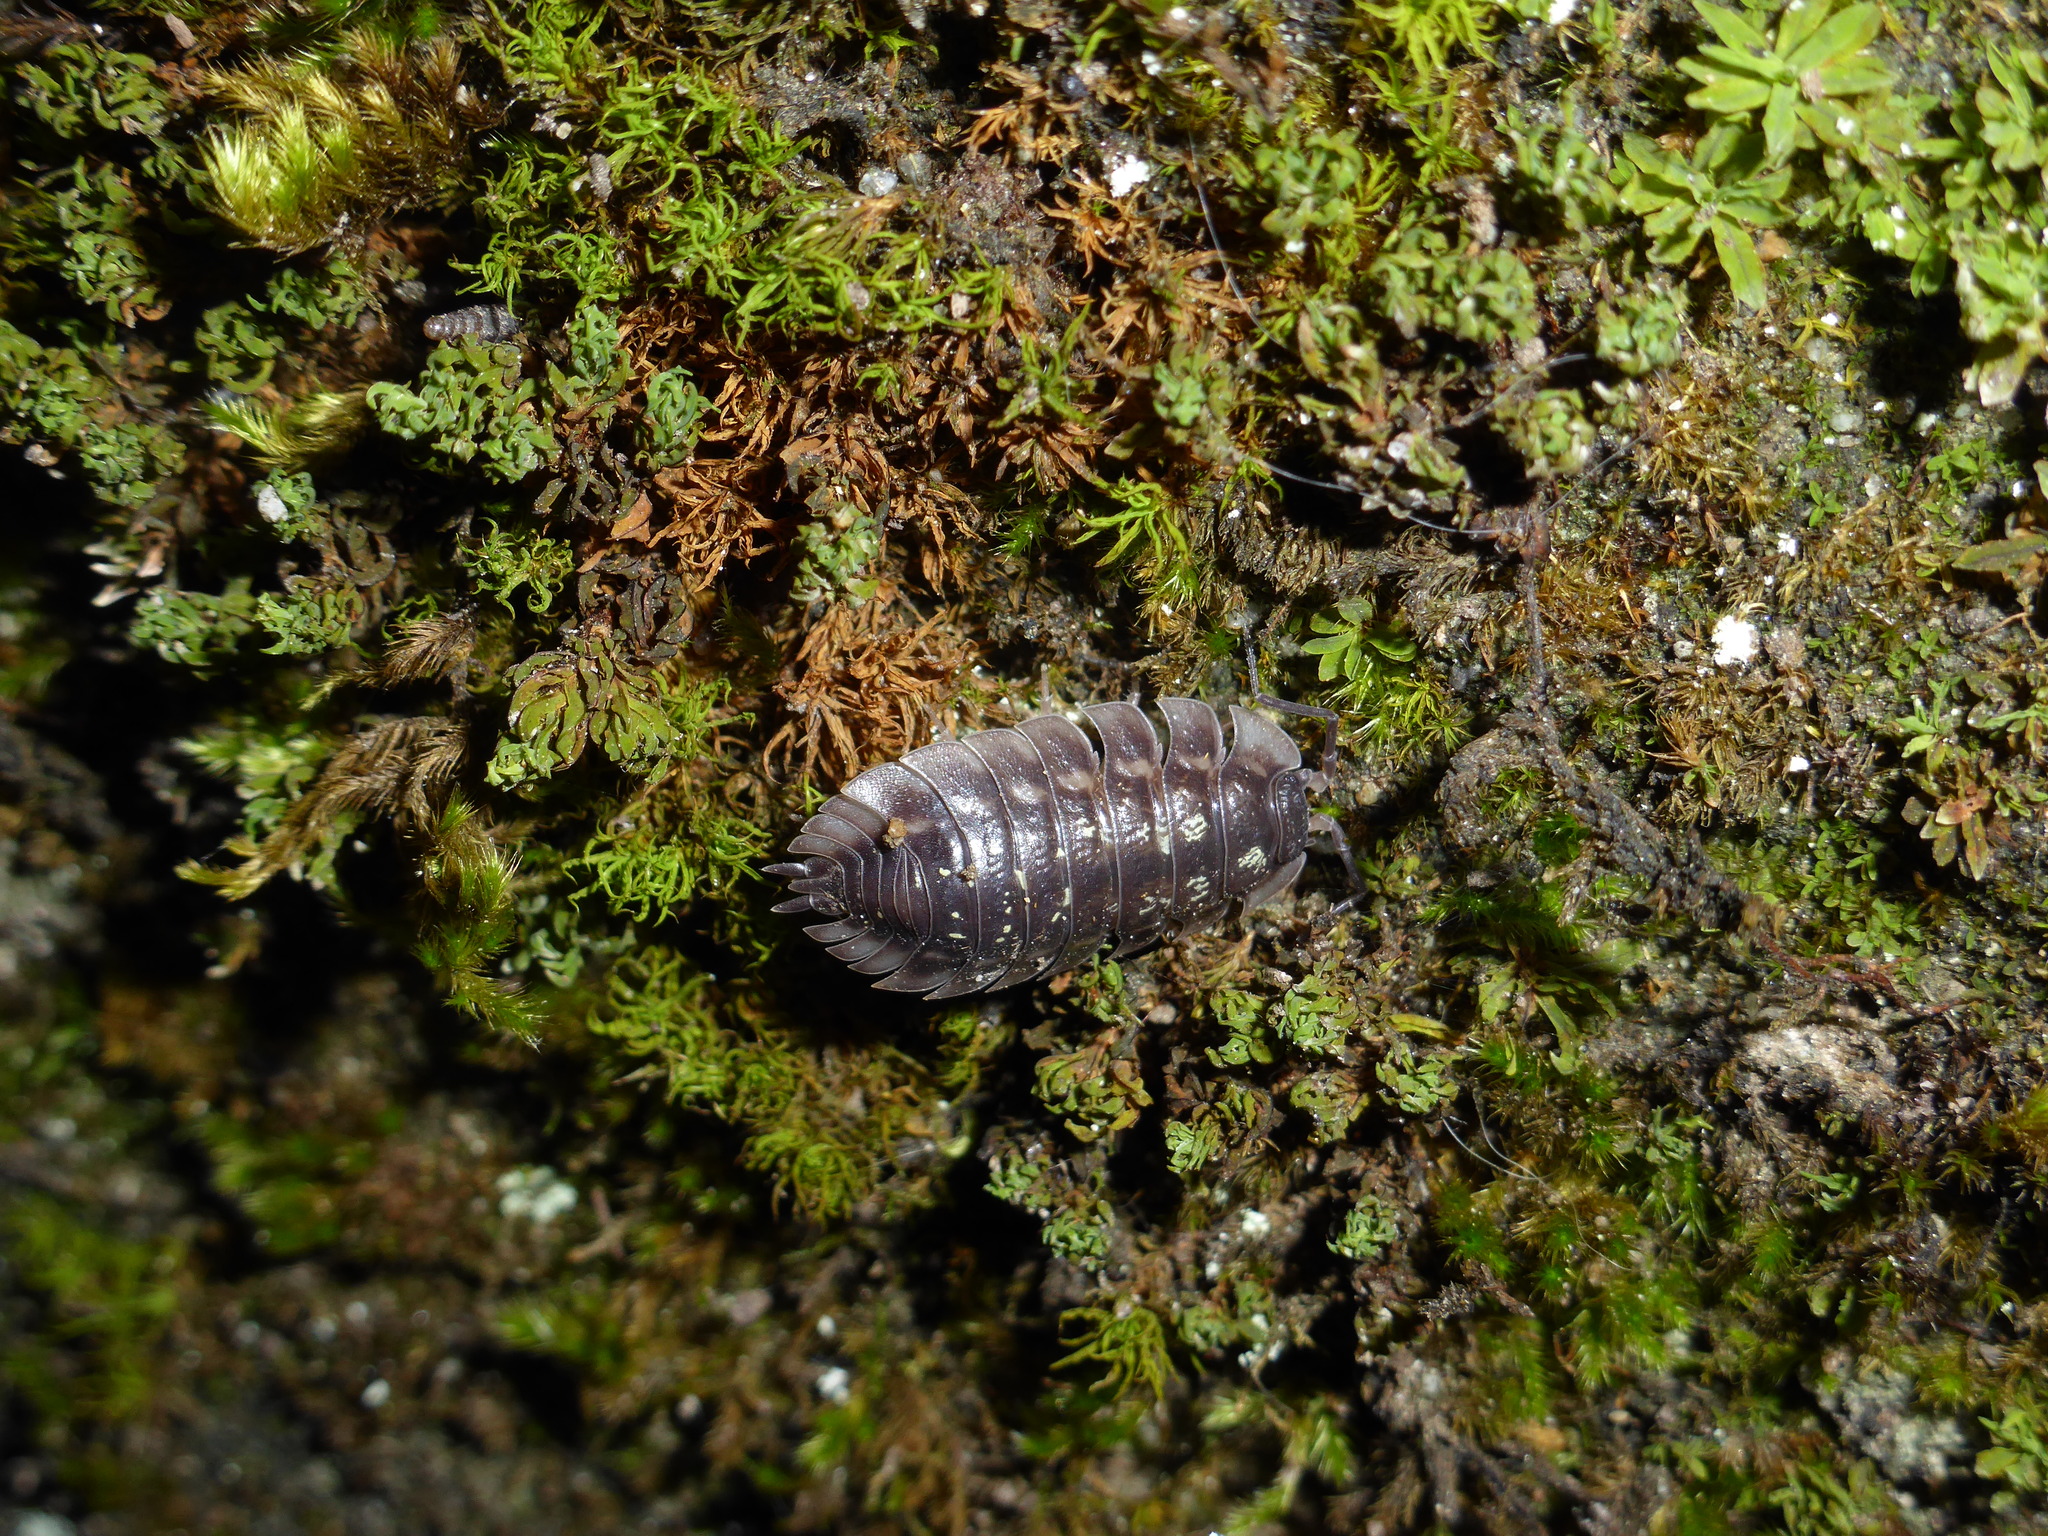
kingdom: Animalia
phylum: Arthropoda
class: Malacostraca
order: Isopoda
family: Oniscidae
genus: Oniscus
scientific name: Oniscus asellus
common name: Common shiny woodlouse
